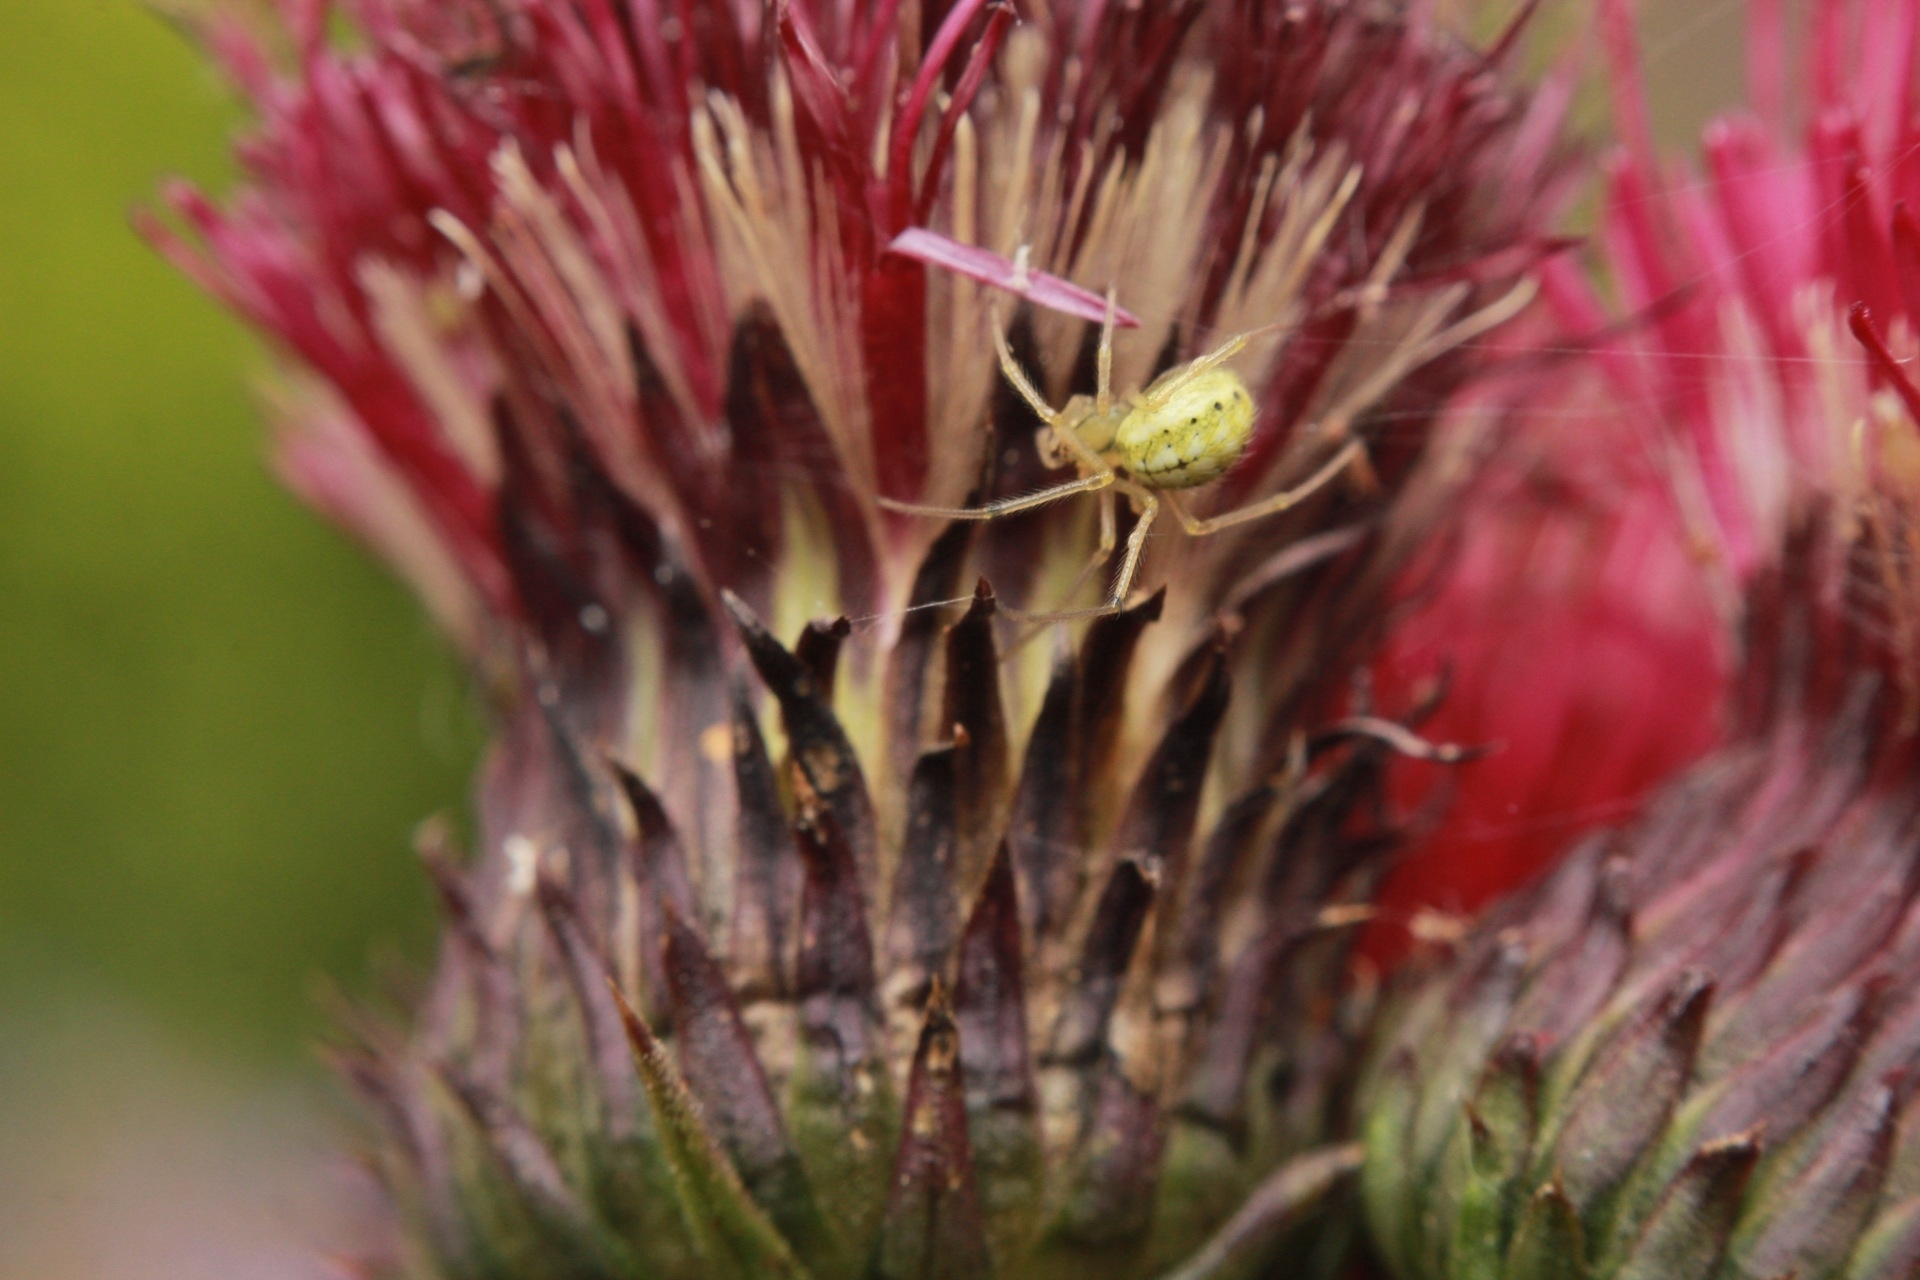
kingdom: Animalia
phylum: Arthropoda
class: Arachnida
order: Araneae
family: Theridiidae
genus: Enoplognatha
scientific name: Enoplognatha ovata
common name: Common candy-striped spider
